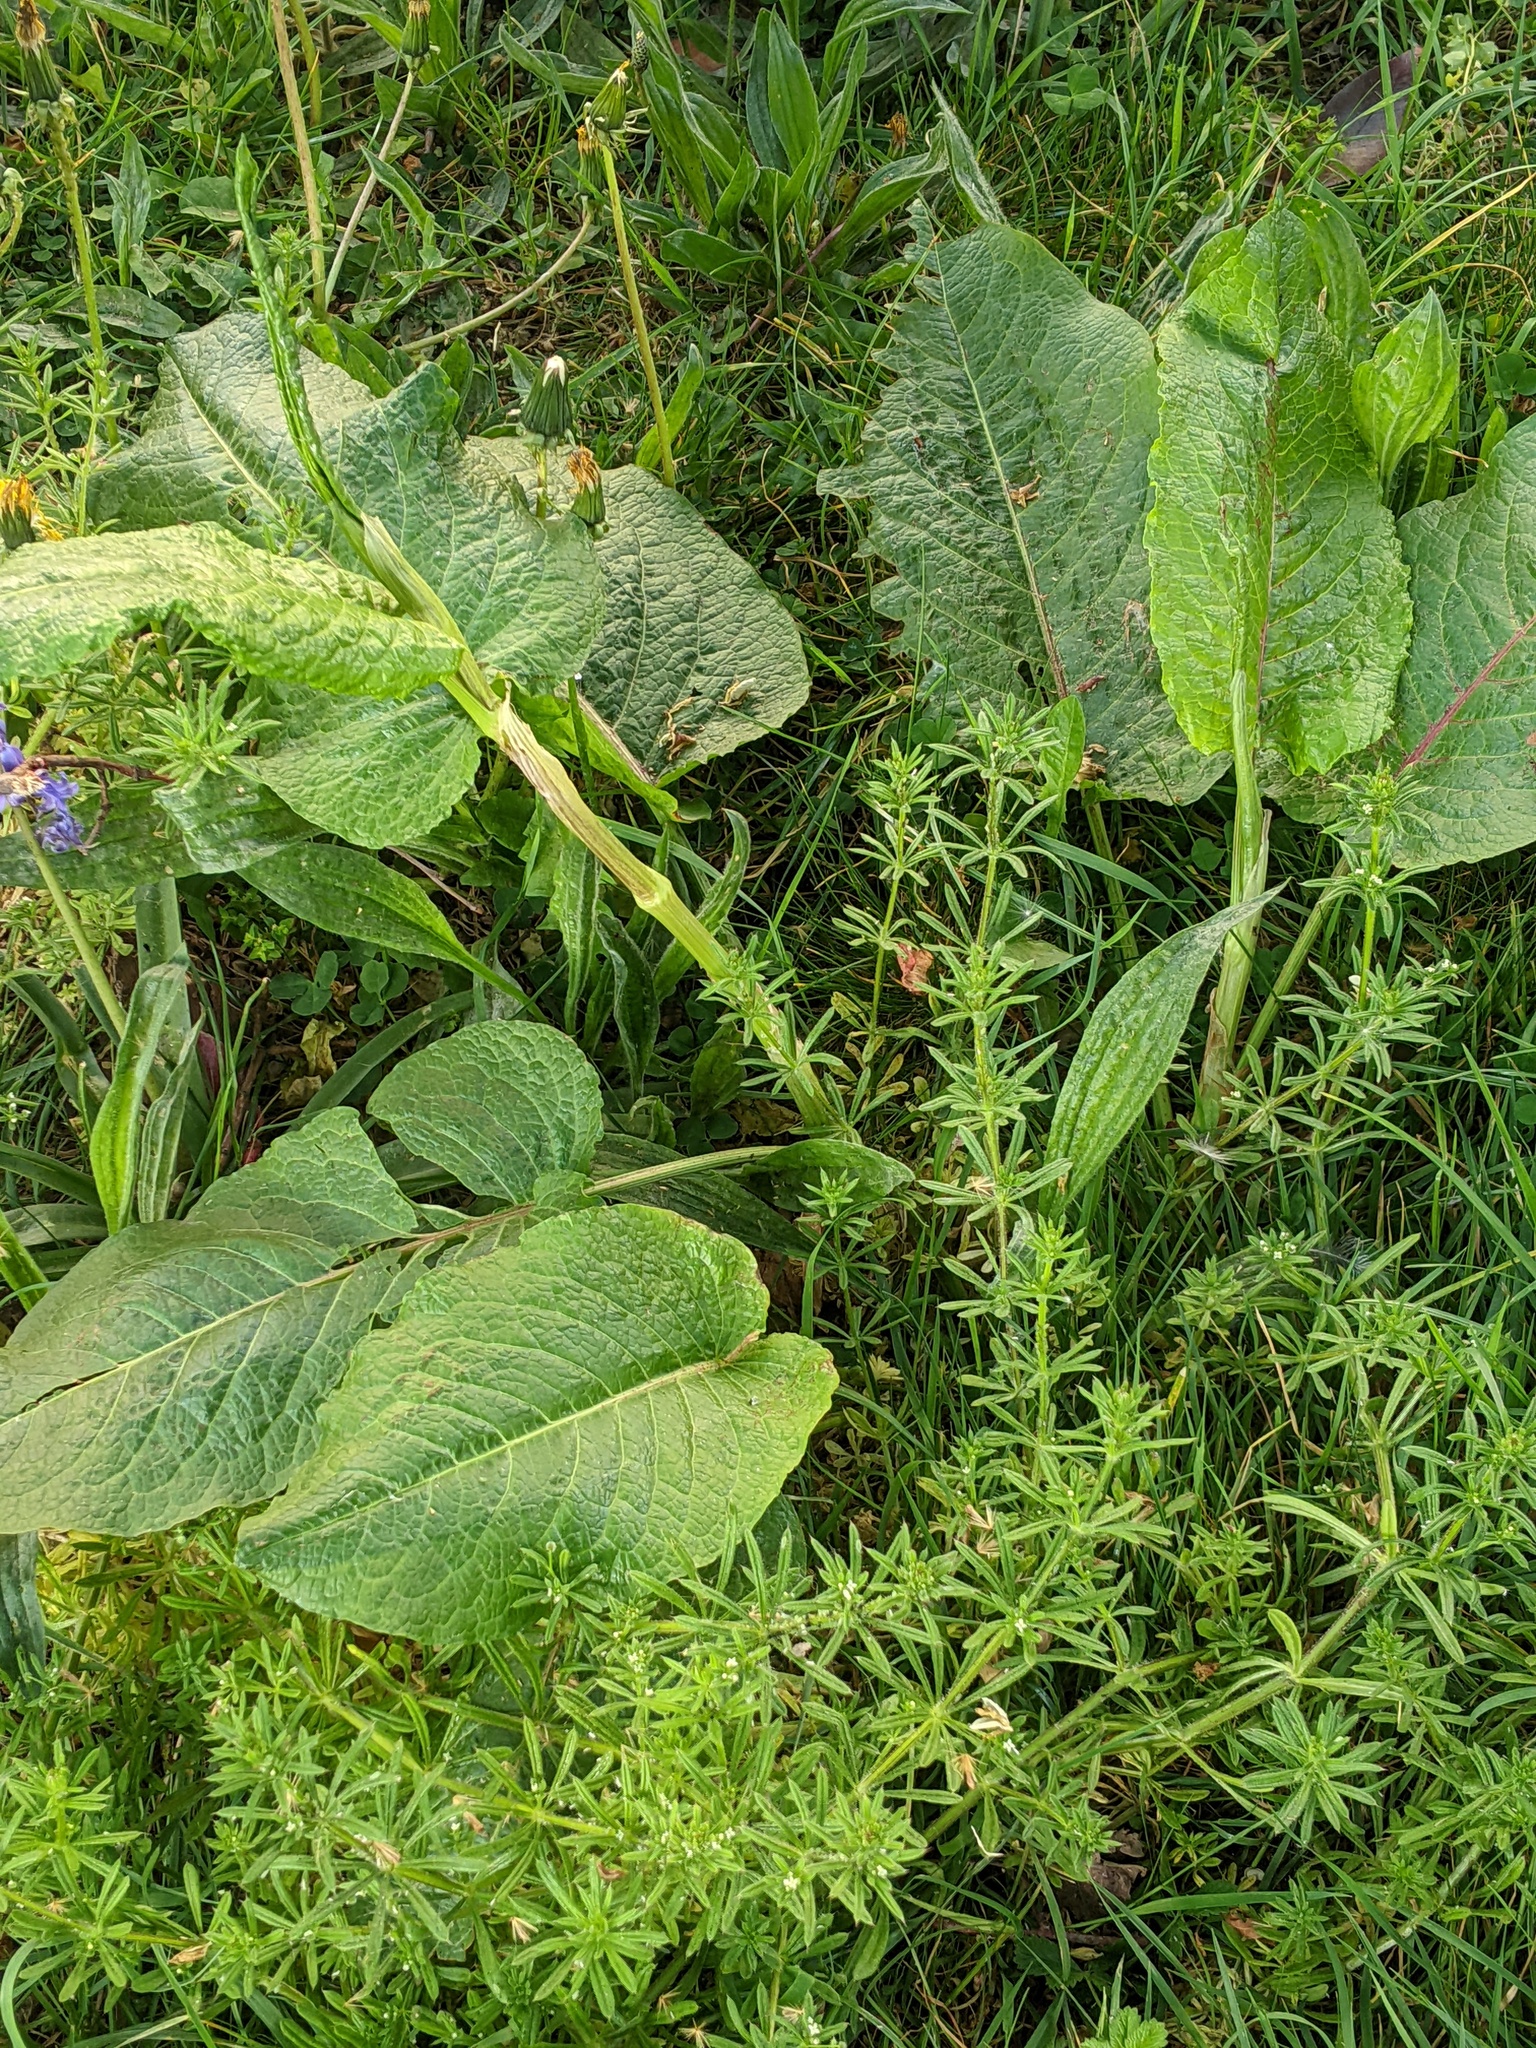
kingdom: Plantae
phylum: Tracheophyta
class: Magnoliopsida
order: Caryophyllales
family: Polygonaceae
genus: Rumex
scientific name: Rumex obtusifolius
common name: Bitter dock
